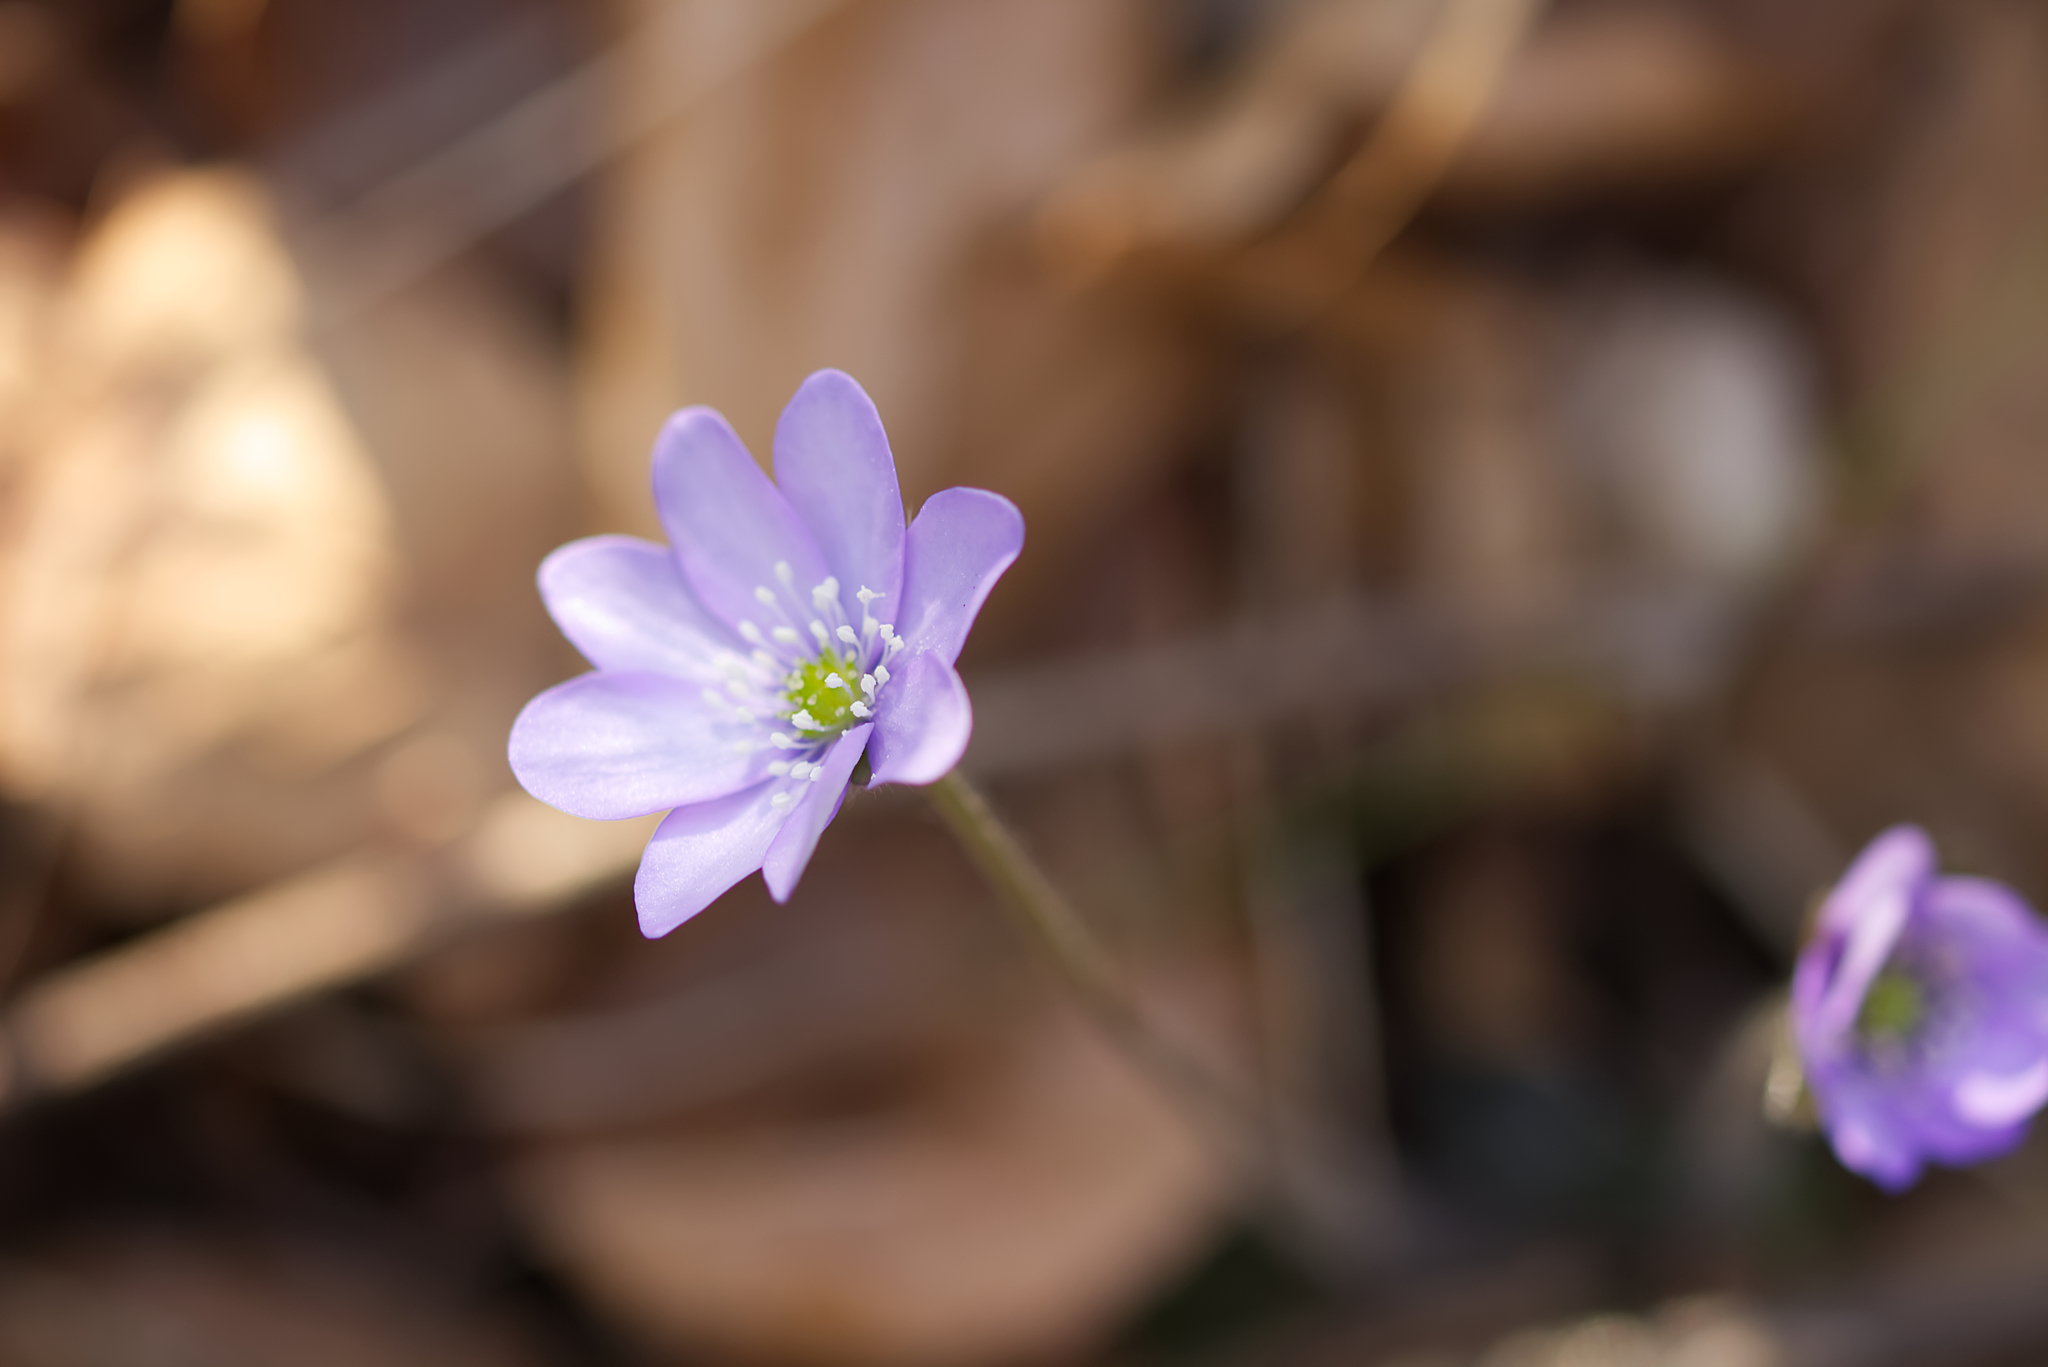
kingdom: Plantae
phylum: Tracheophyta
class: Magnoliopsida
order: Ranunculales
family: Ranunculaceae
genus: Hepatica
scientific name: Hepatica nobilis
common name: Liverleaf
